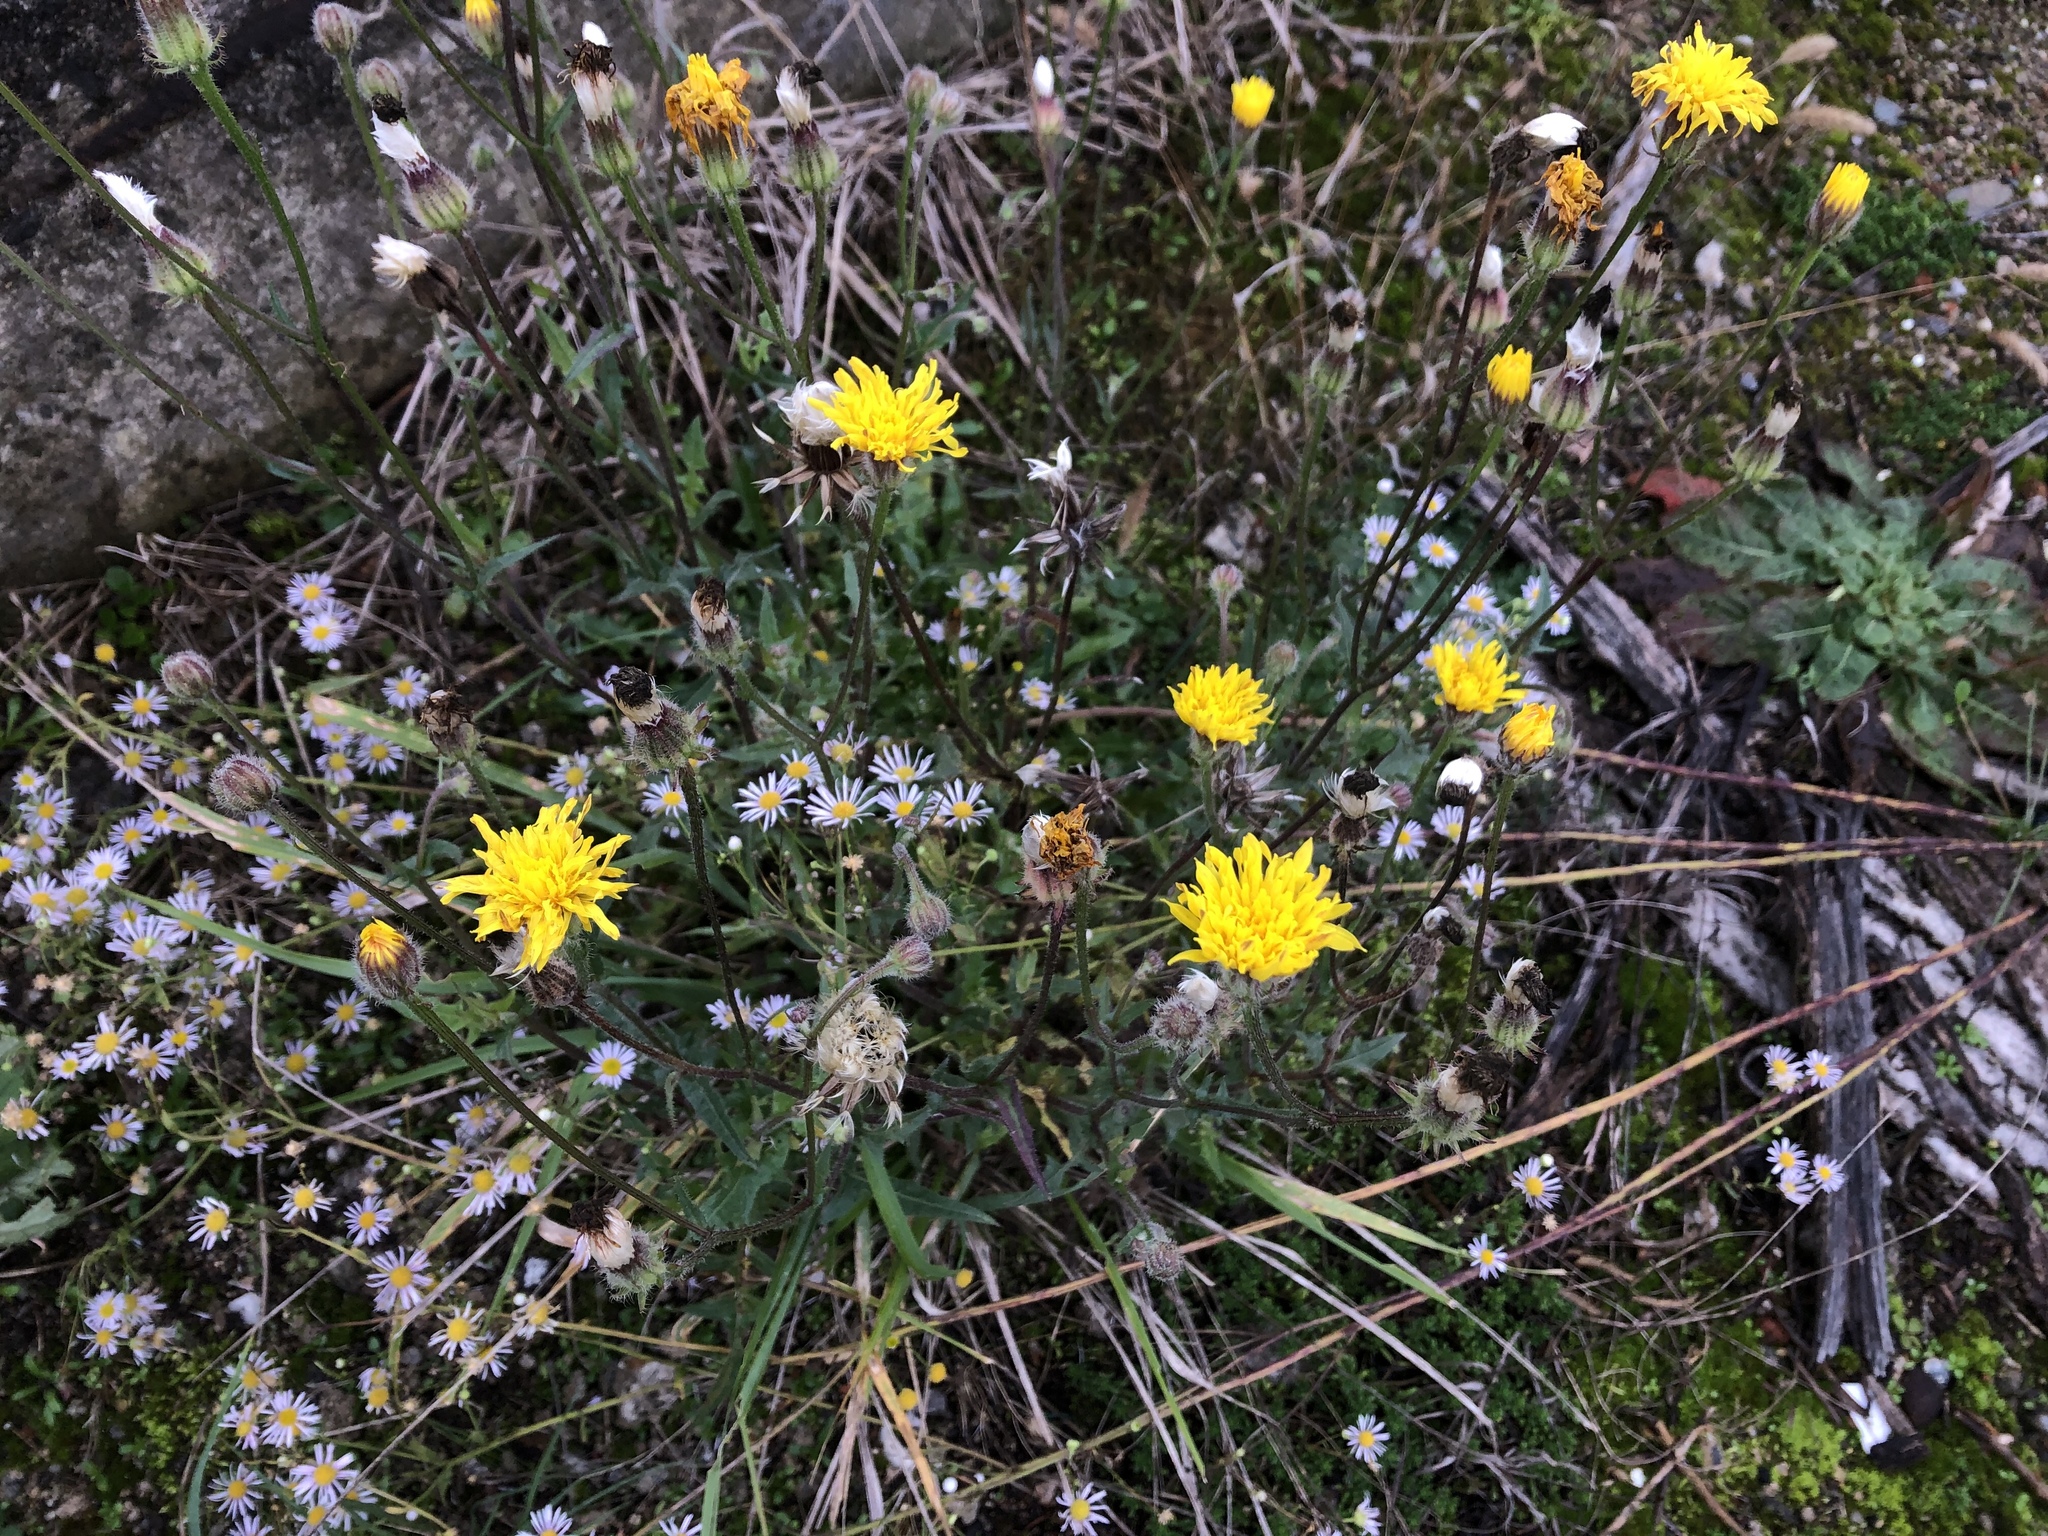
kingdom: Plantae
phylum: Tracheophyta
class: Magnoliopsida
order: Asterales
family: Asteraceae
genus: Crepis
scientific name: Crepis foetida
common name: Stinking hawk's-beard
